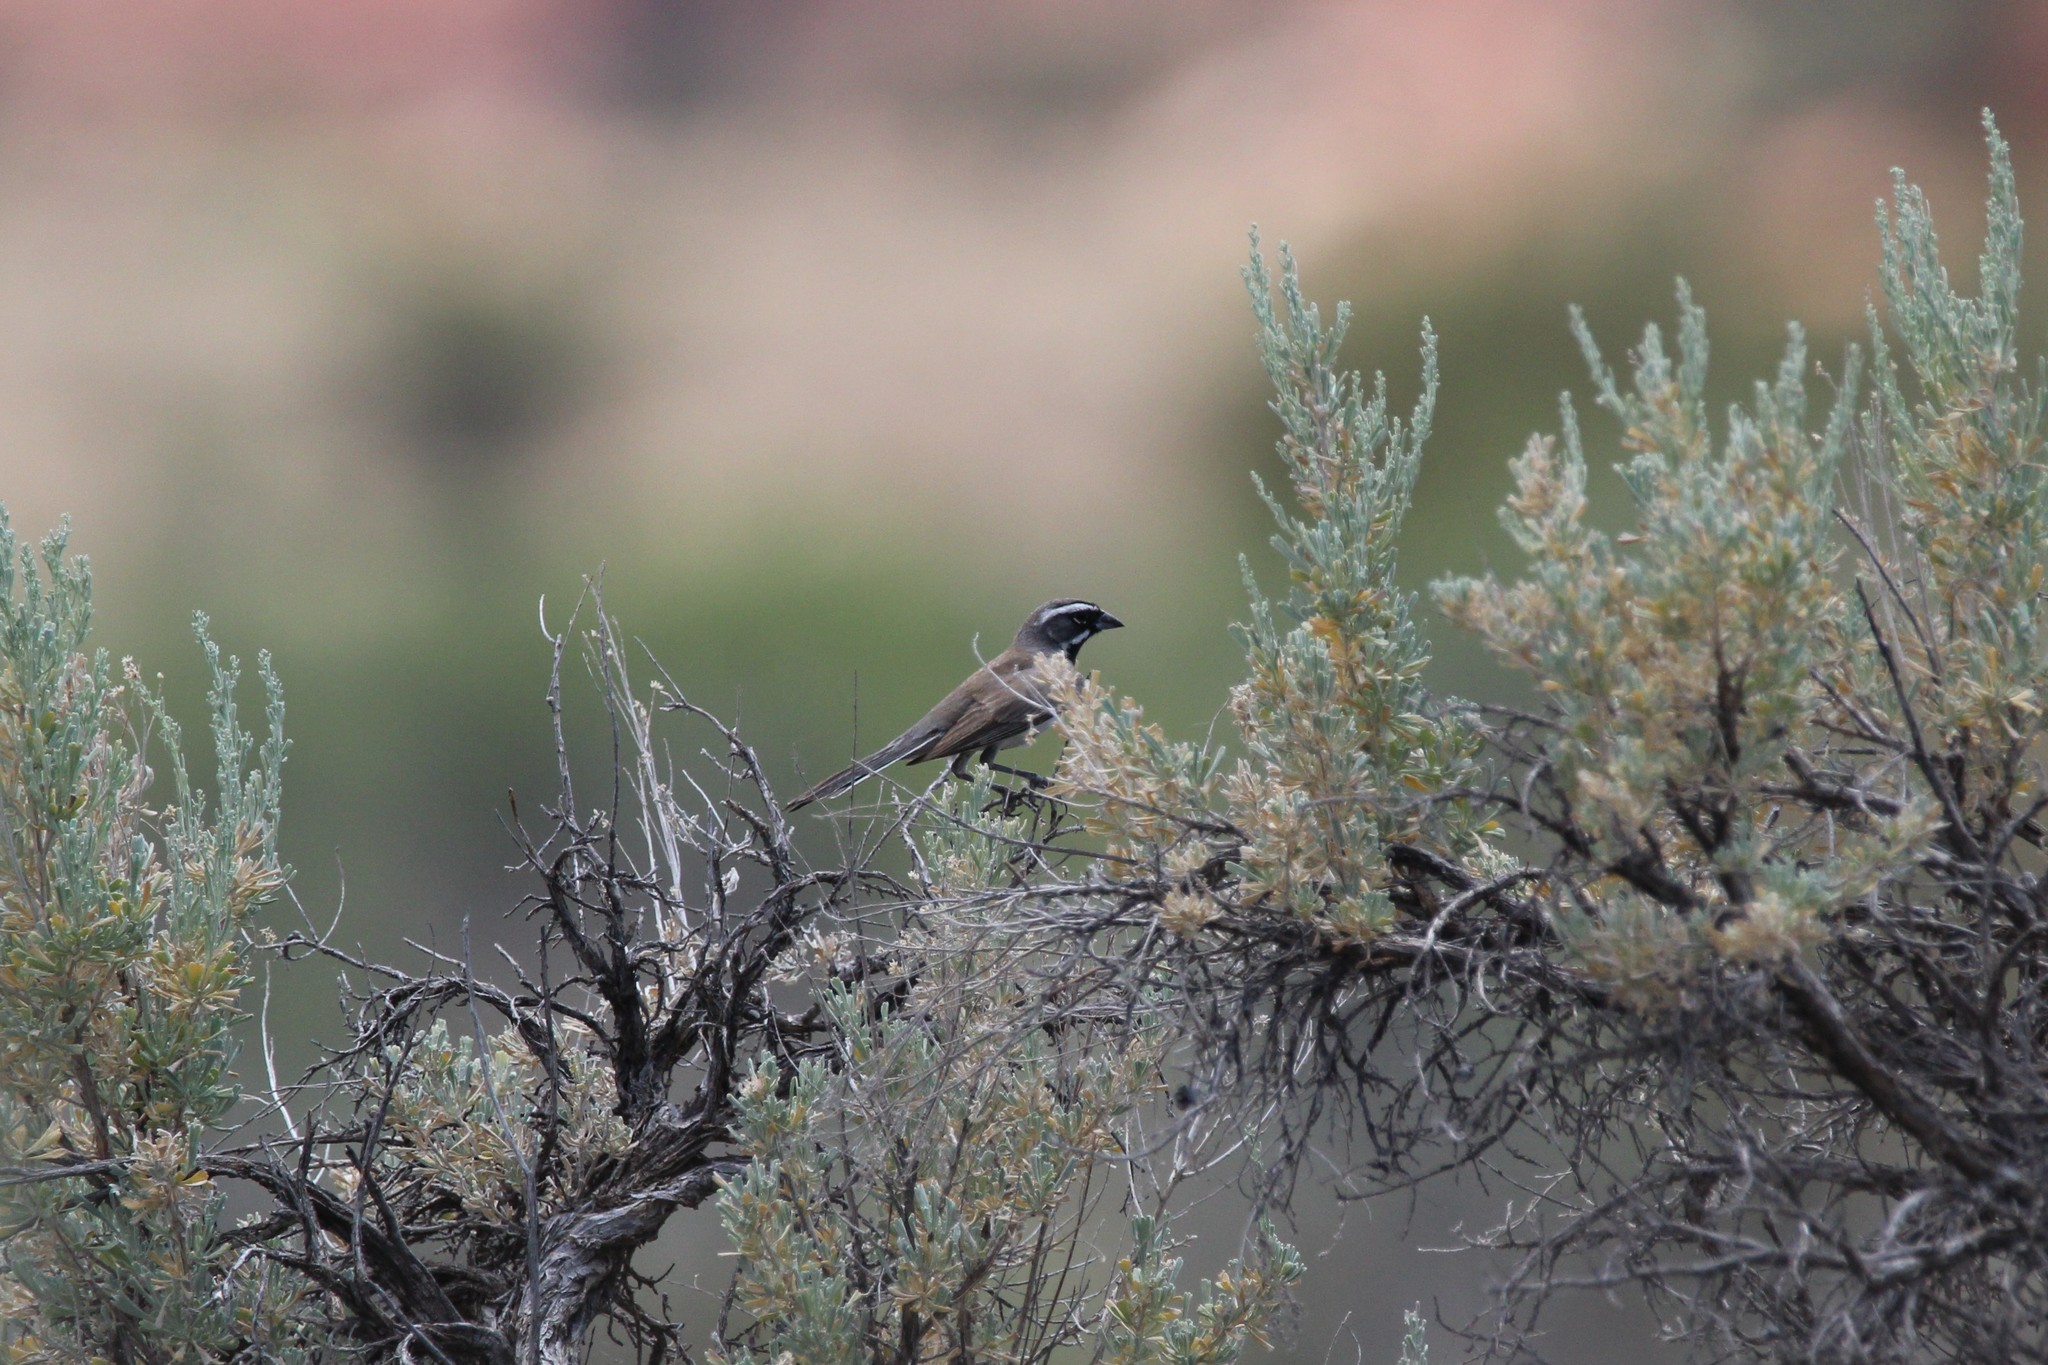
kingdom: Animalia
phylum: Chordata
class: Aves
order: Passeriformes
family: Passerellidae
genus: Amphispiza
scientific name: Amphispiza bilineata
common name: Black-throated sparrow
